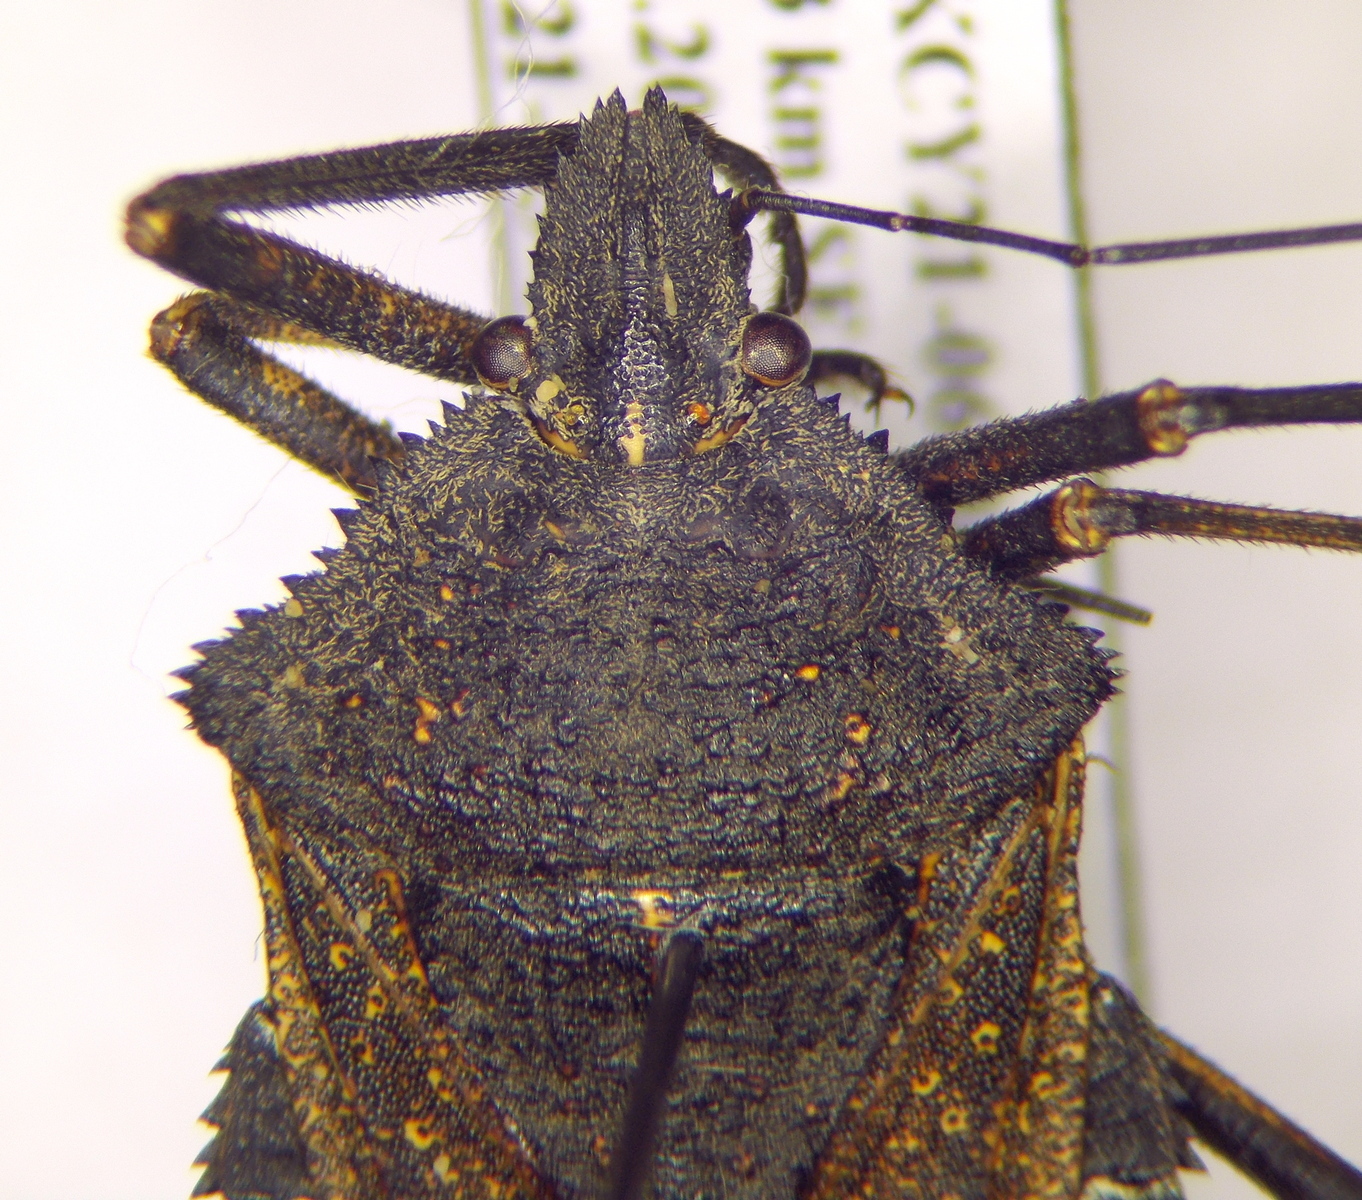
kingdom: Animalia
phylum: Arthropoda
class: Insecta
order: Hemiptera
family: Pentatomidae
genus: Mustha
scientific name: Mustha spinosula
